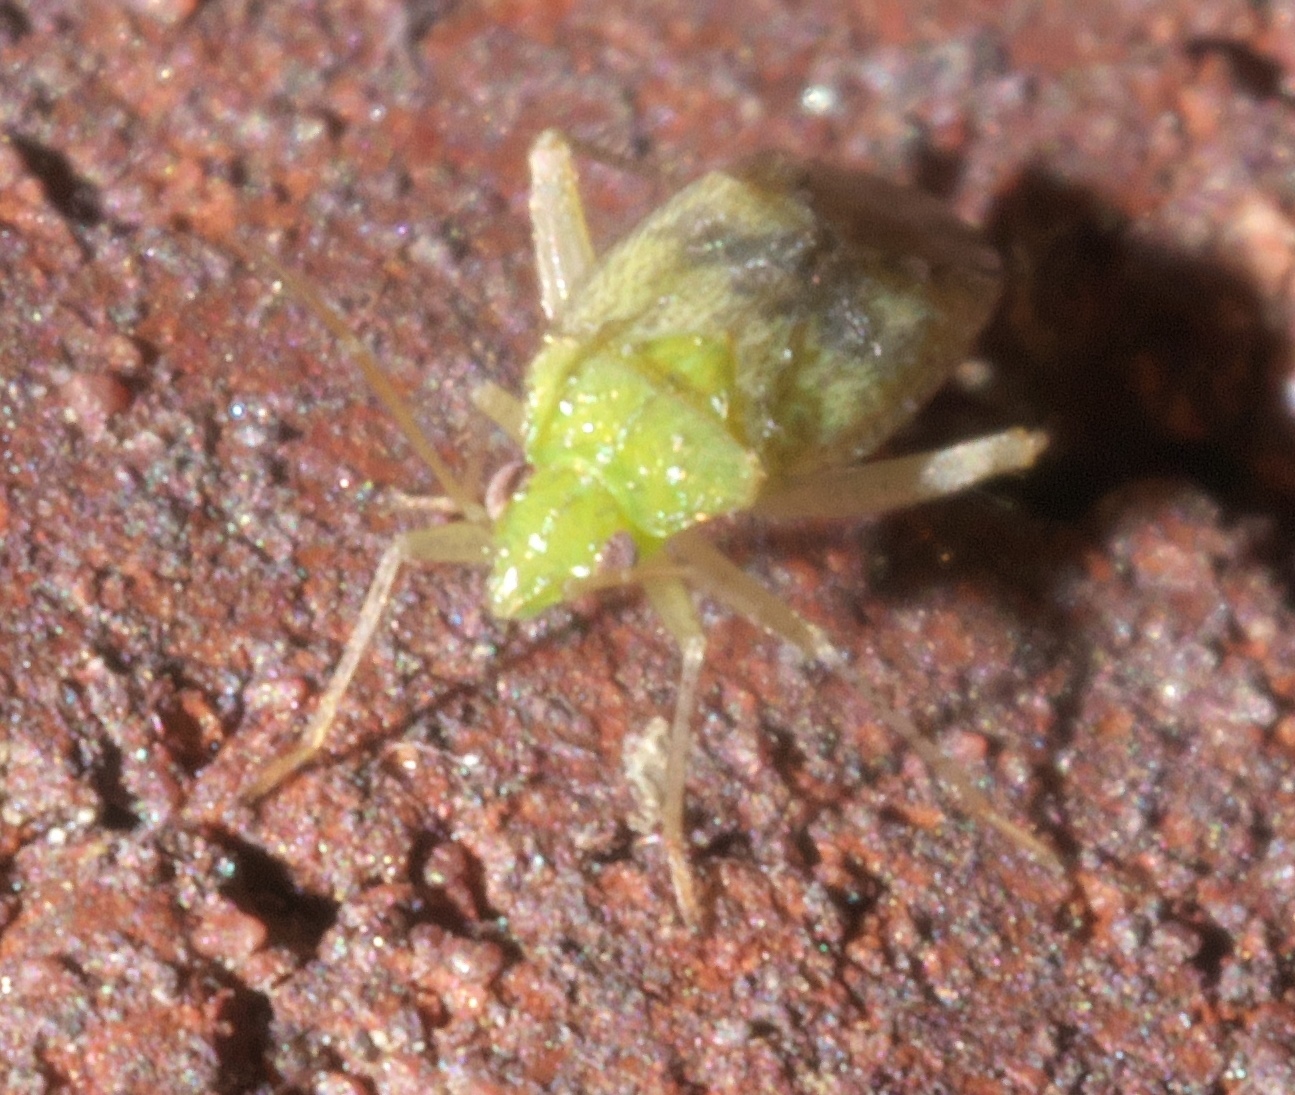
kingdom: Animalia
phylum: Arthropoda
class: Insecta
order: Hemiptera
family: Miridae
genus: Keltonia
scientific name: Keltonia tuckeri
